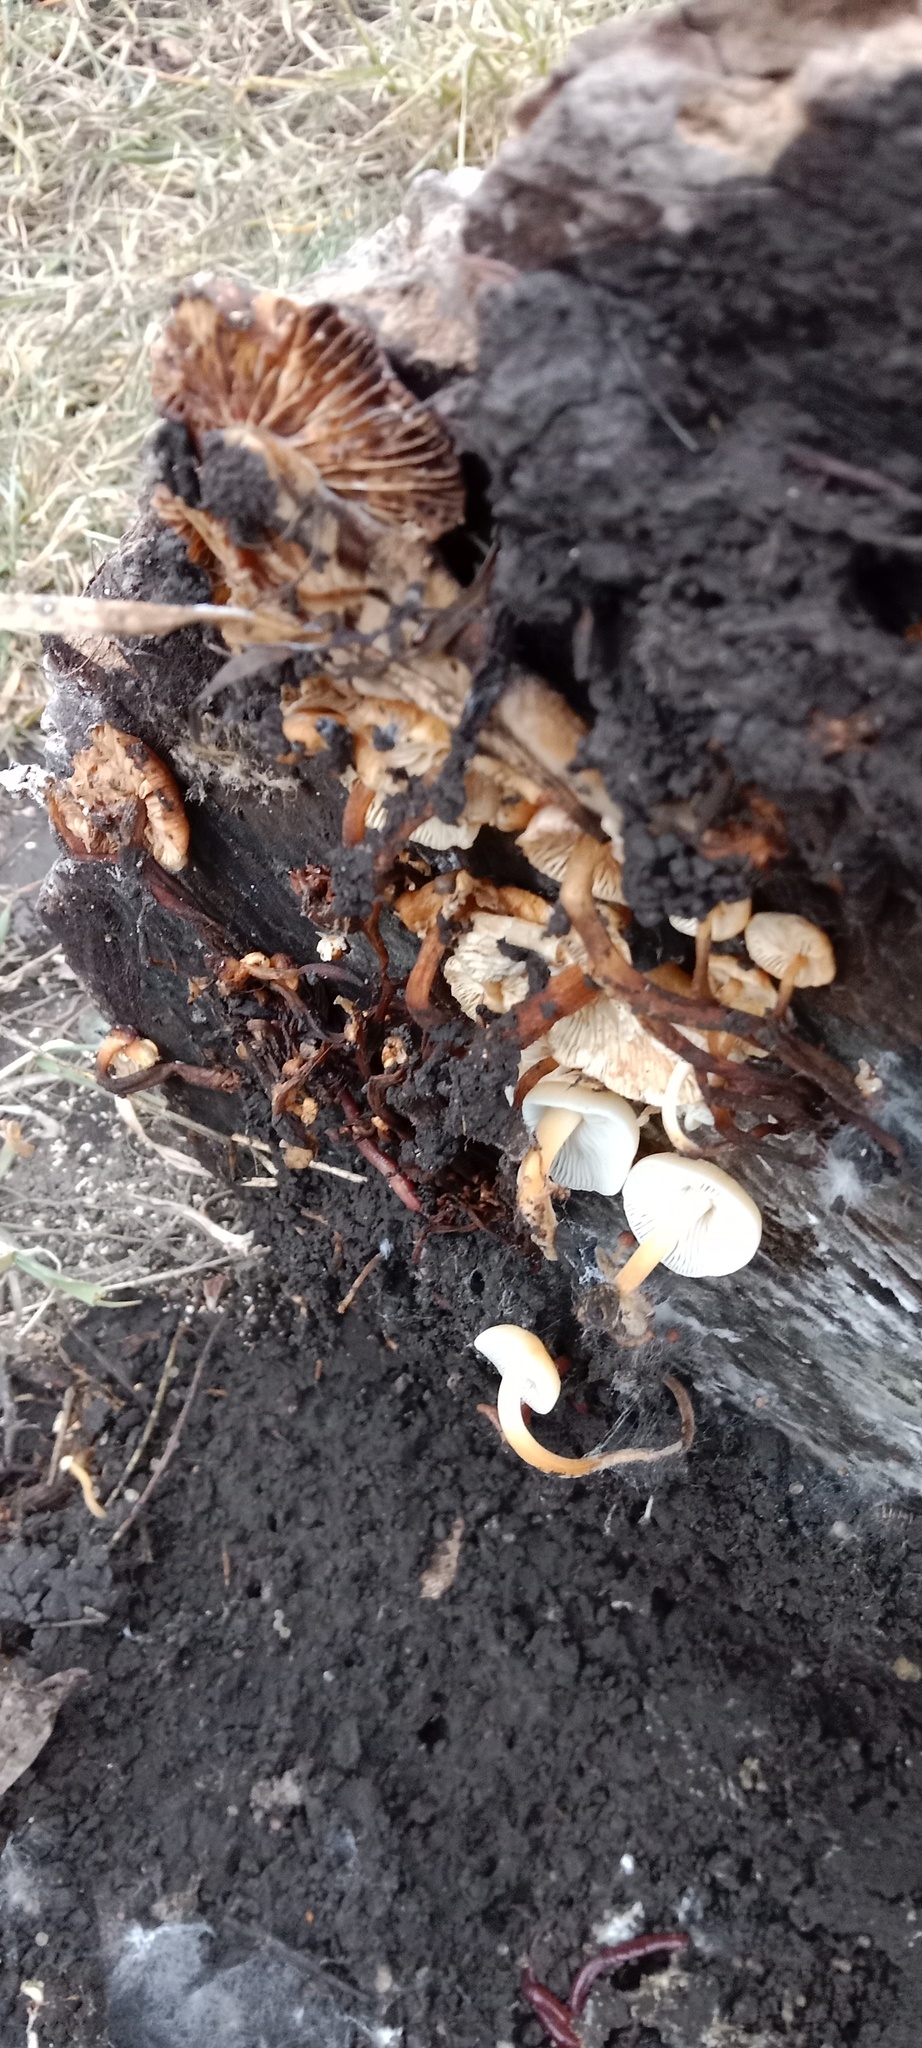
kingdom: Fungi
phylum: Basidiomycota
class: Agaricomycetes
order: Agaricales
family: Physalacriaceae
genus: Flammulina
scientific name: Flammulina
